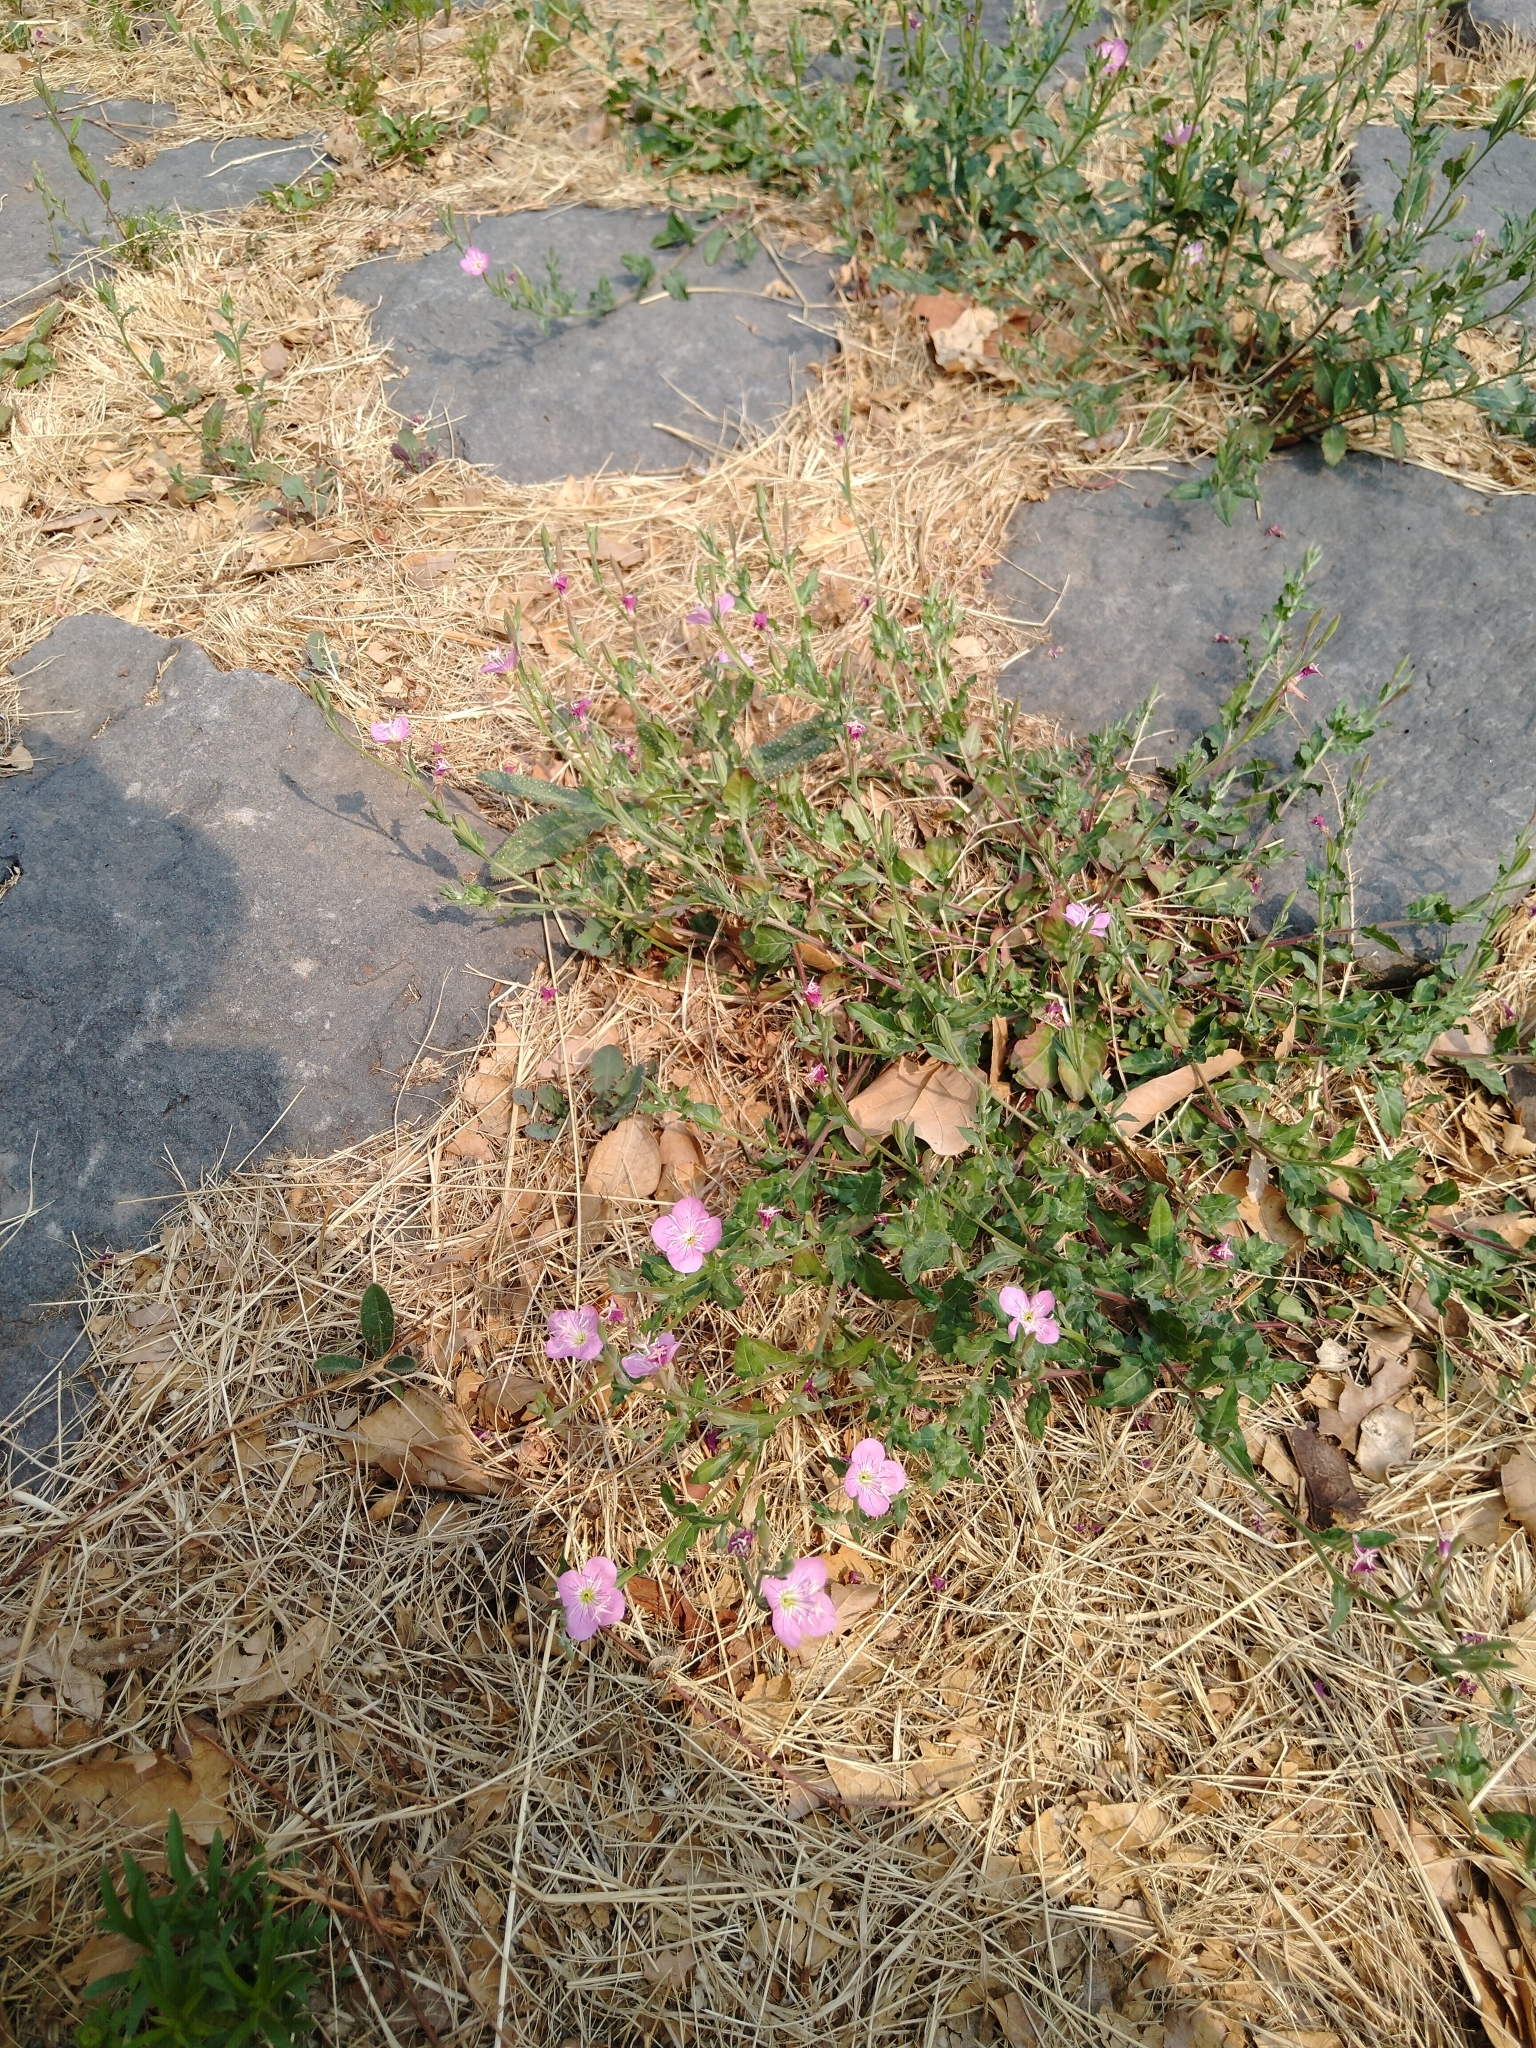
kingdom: Plantae
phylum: Tracheophyta
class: Magnoliopsida
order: Myrtales
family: Onagraceae
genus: Oenothera
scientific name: Oenothera rosea
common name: Rosy evening-primrose
